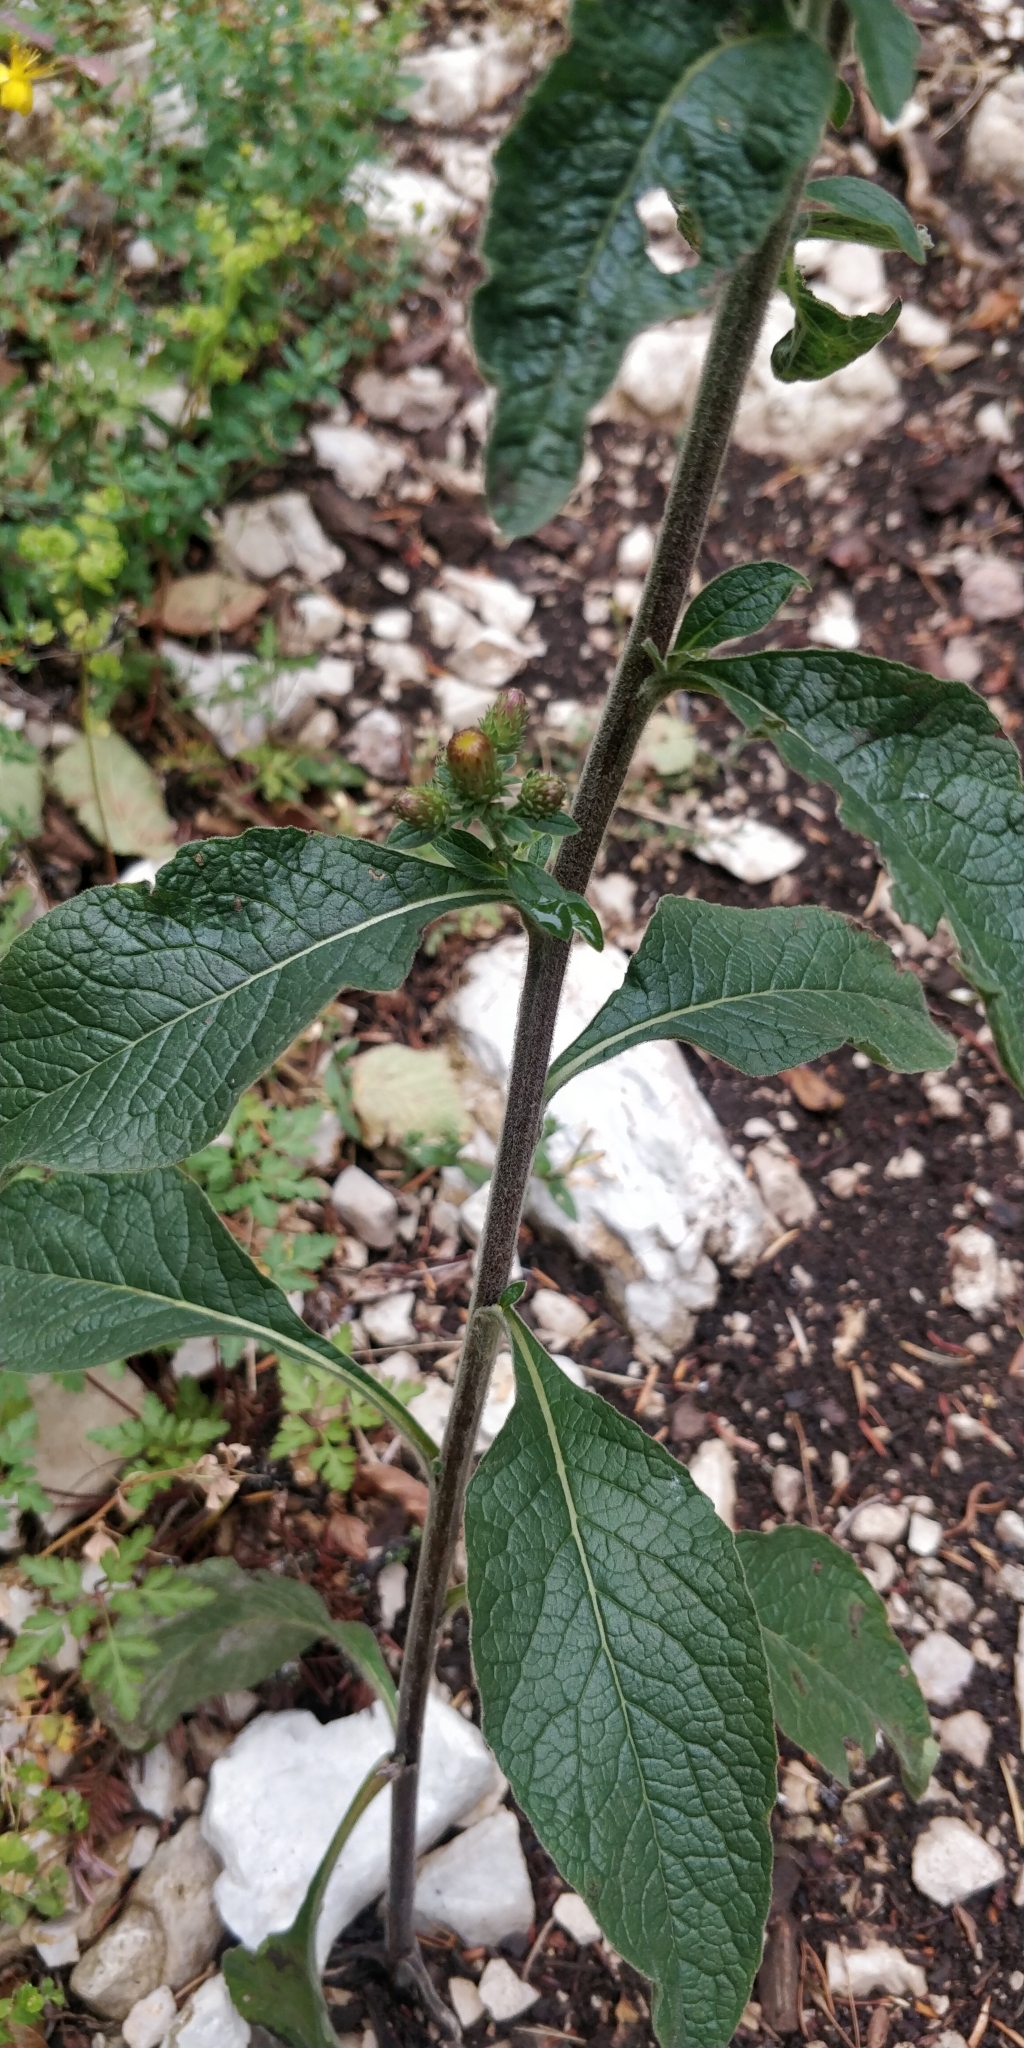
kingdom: Plantae
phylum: Tracheophyta
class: Magnoliopsida
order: Asterales
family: Asteraceae
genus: Pentanema
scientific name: Pentanema squarrosum
